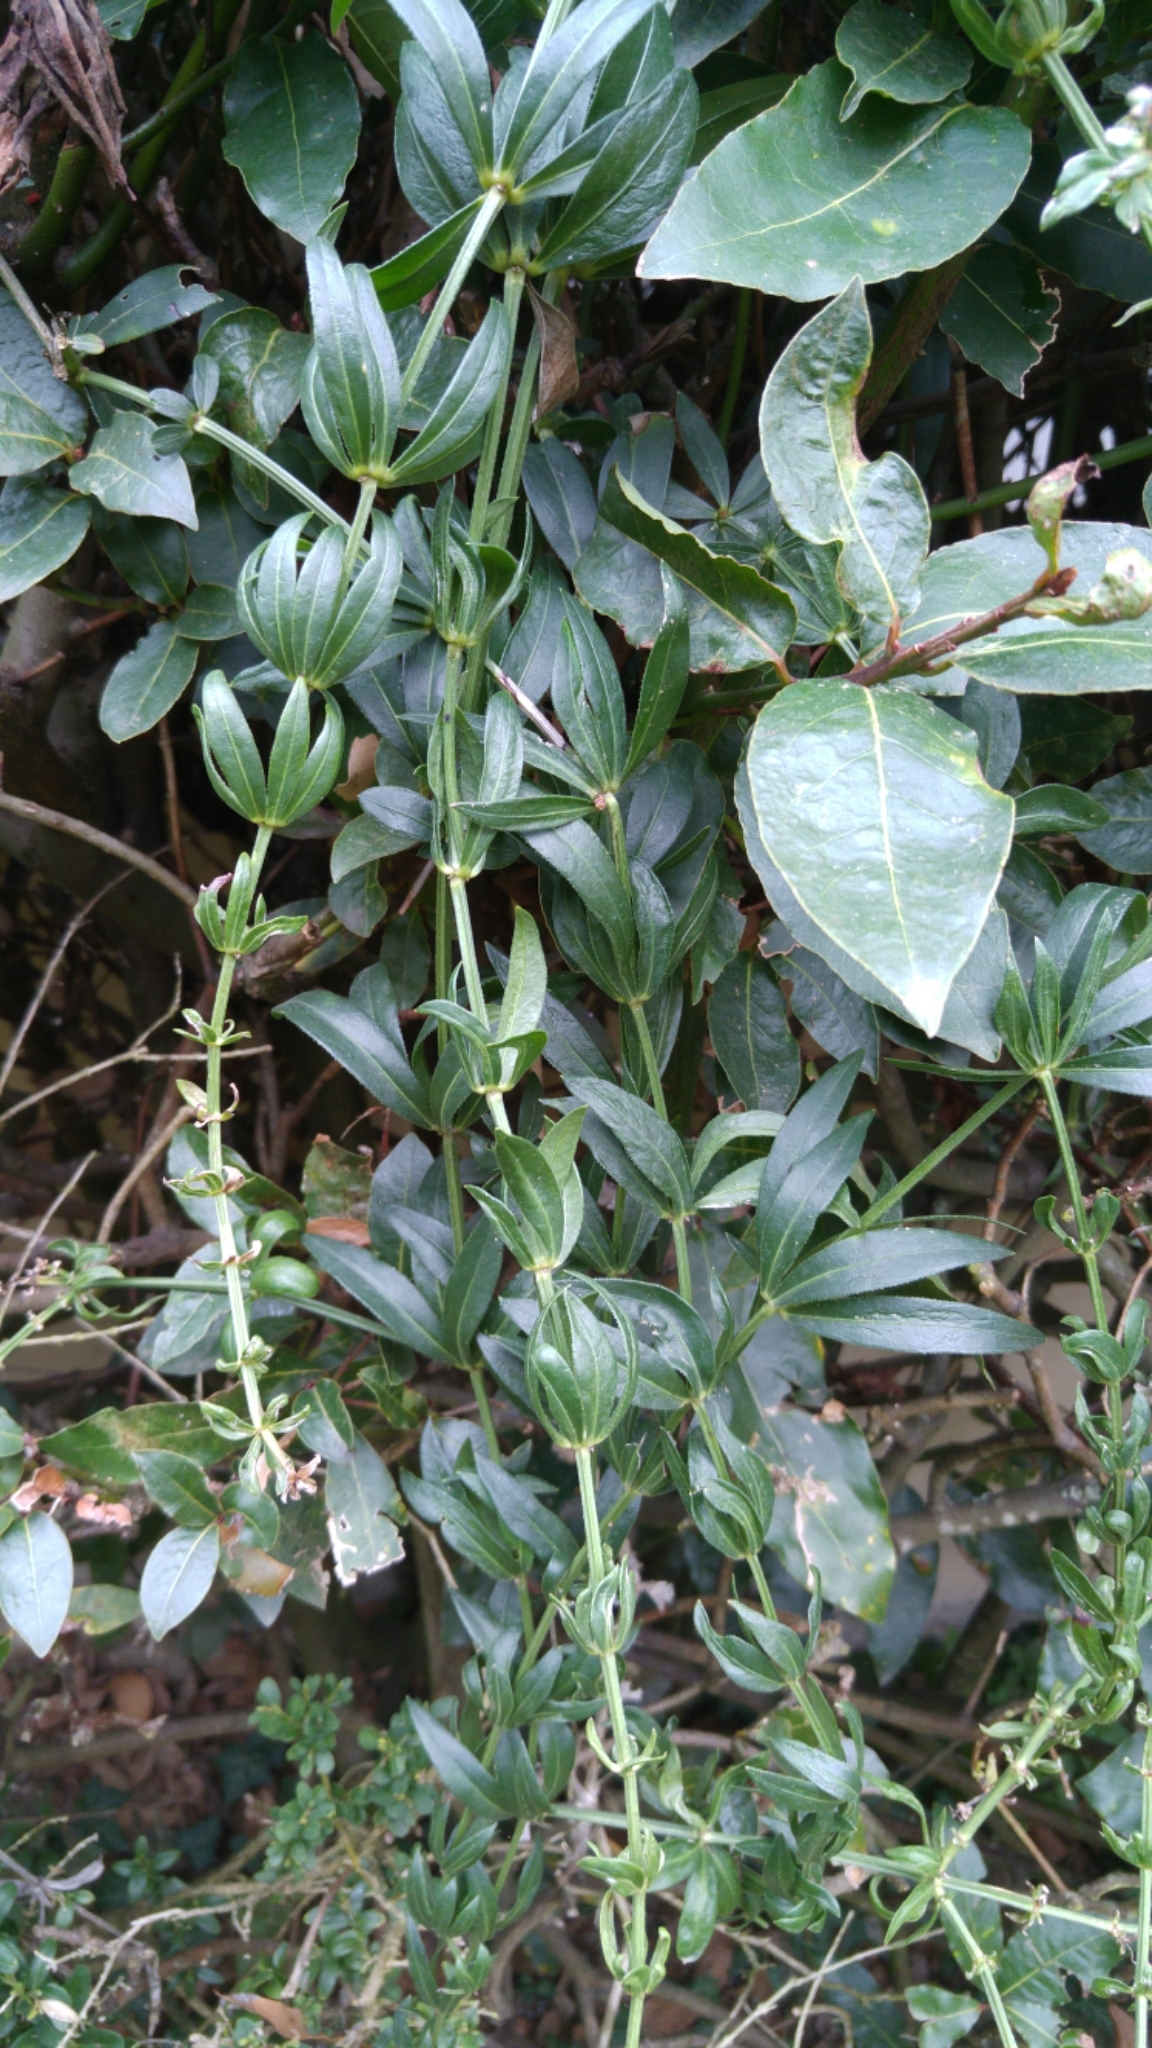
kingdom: Plantae
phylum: Tracheophyta
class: Magnoliopsida
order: Gentianales
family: Rubiaceae
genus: Rubia
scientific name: Rubia peregrina
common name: Wild madder
